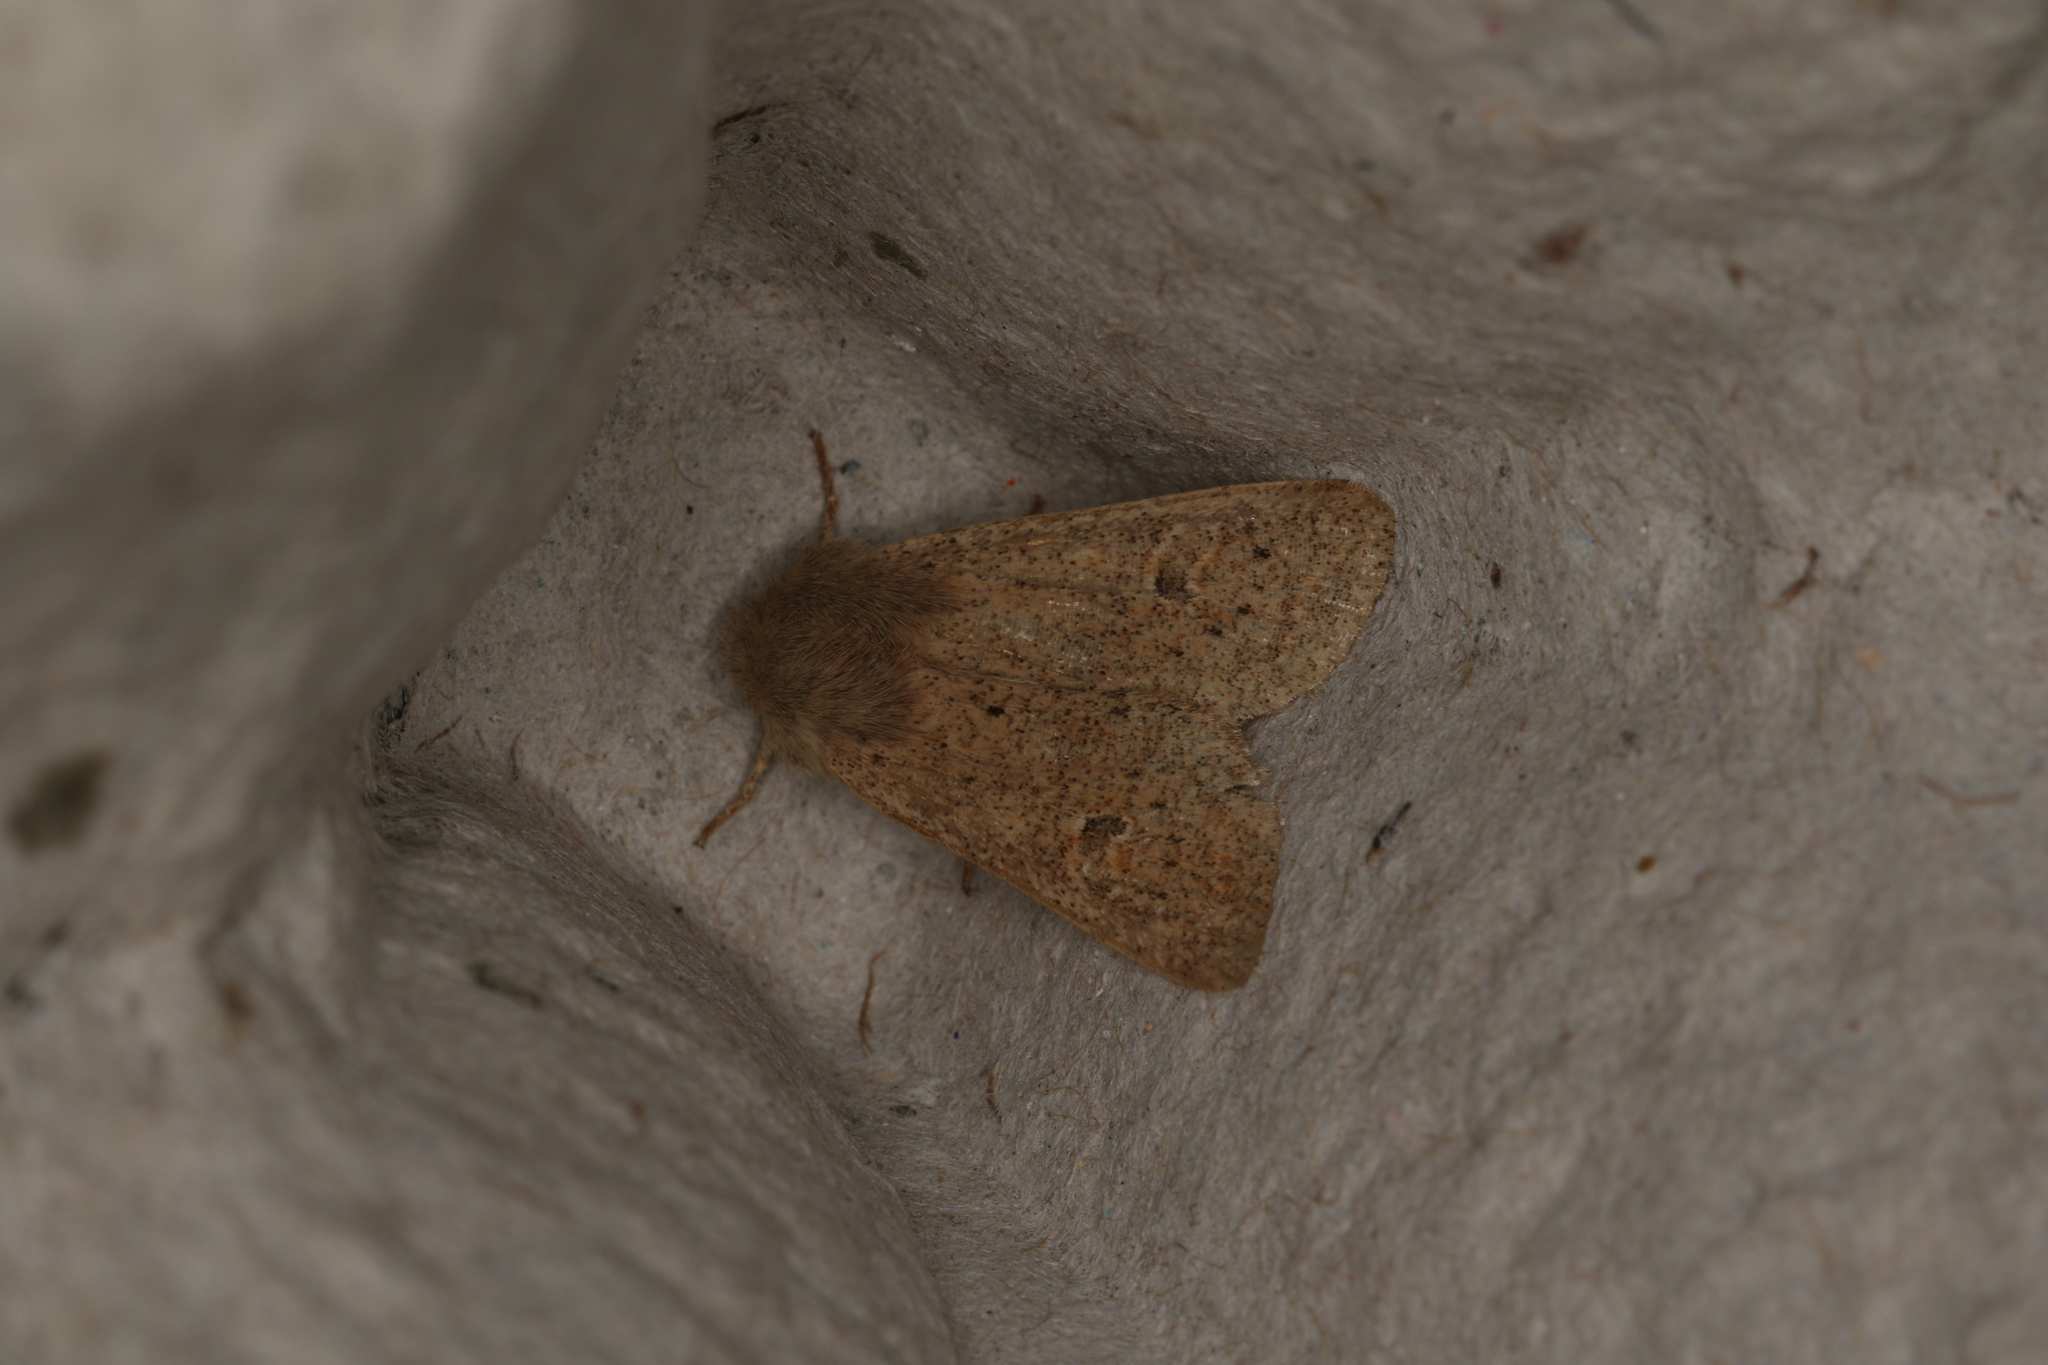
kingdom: Animalia
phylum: Arthropoda
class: Insecta
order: Lepidoptera
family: Noctuidae
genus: Orthosia
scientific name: Orthosia cruda
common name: Small quaker
